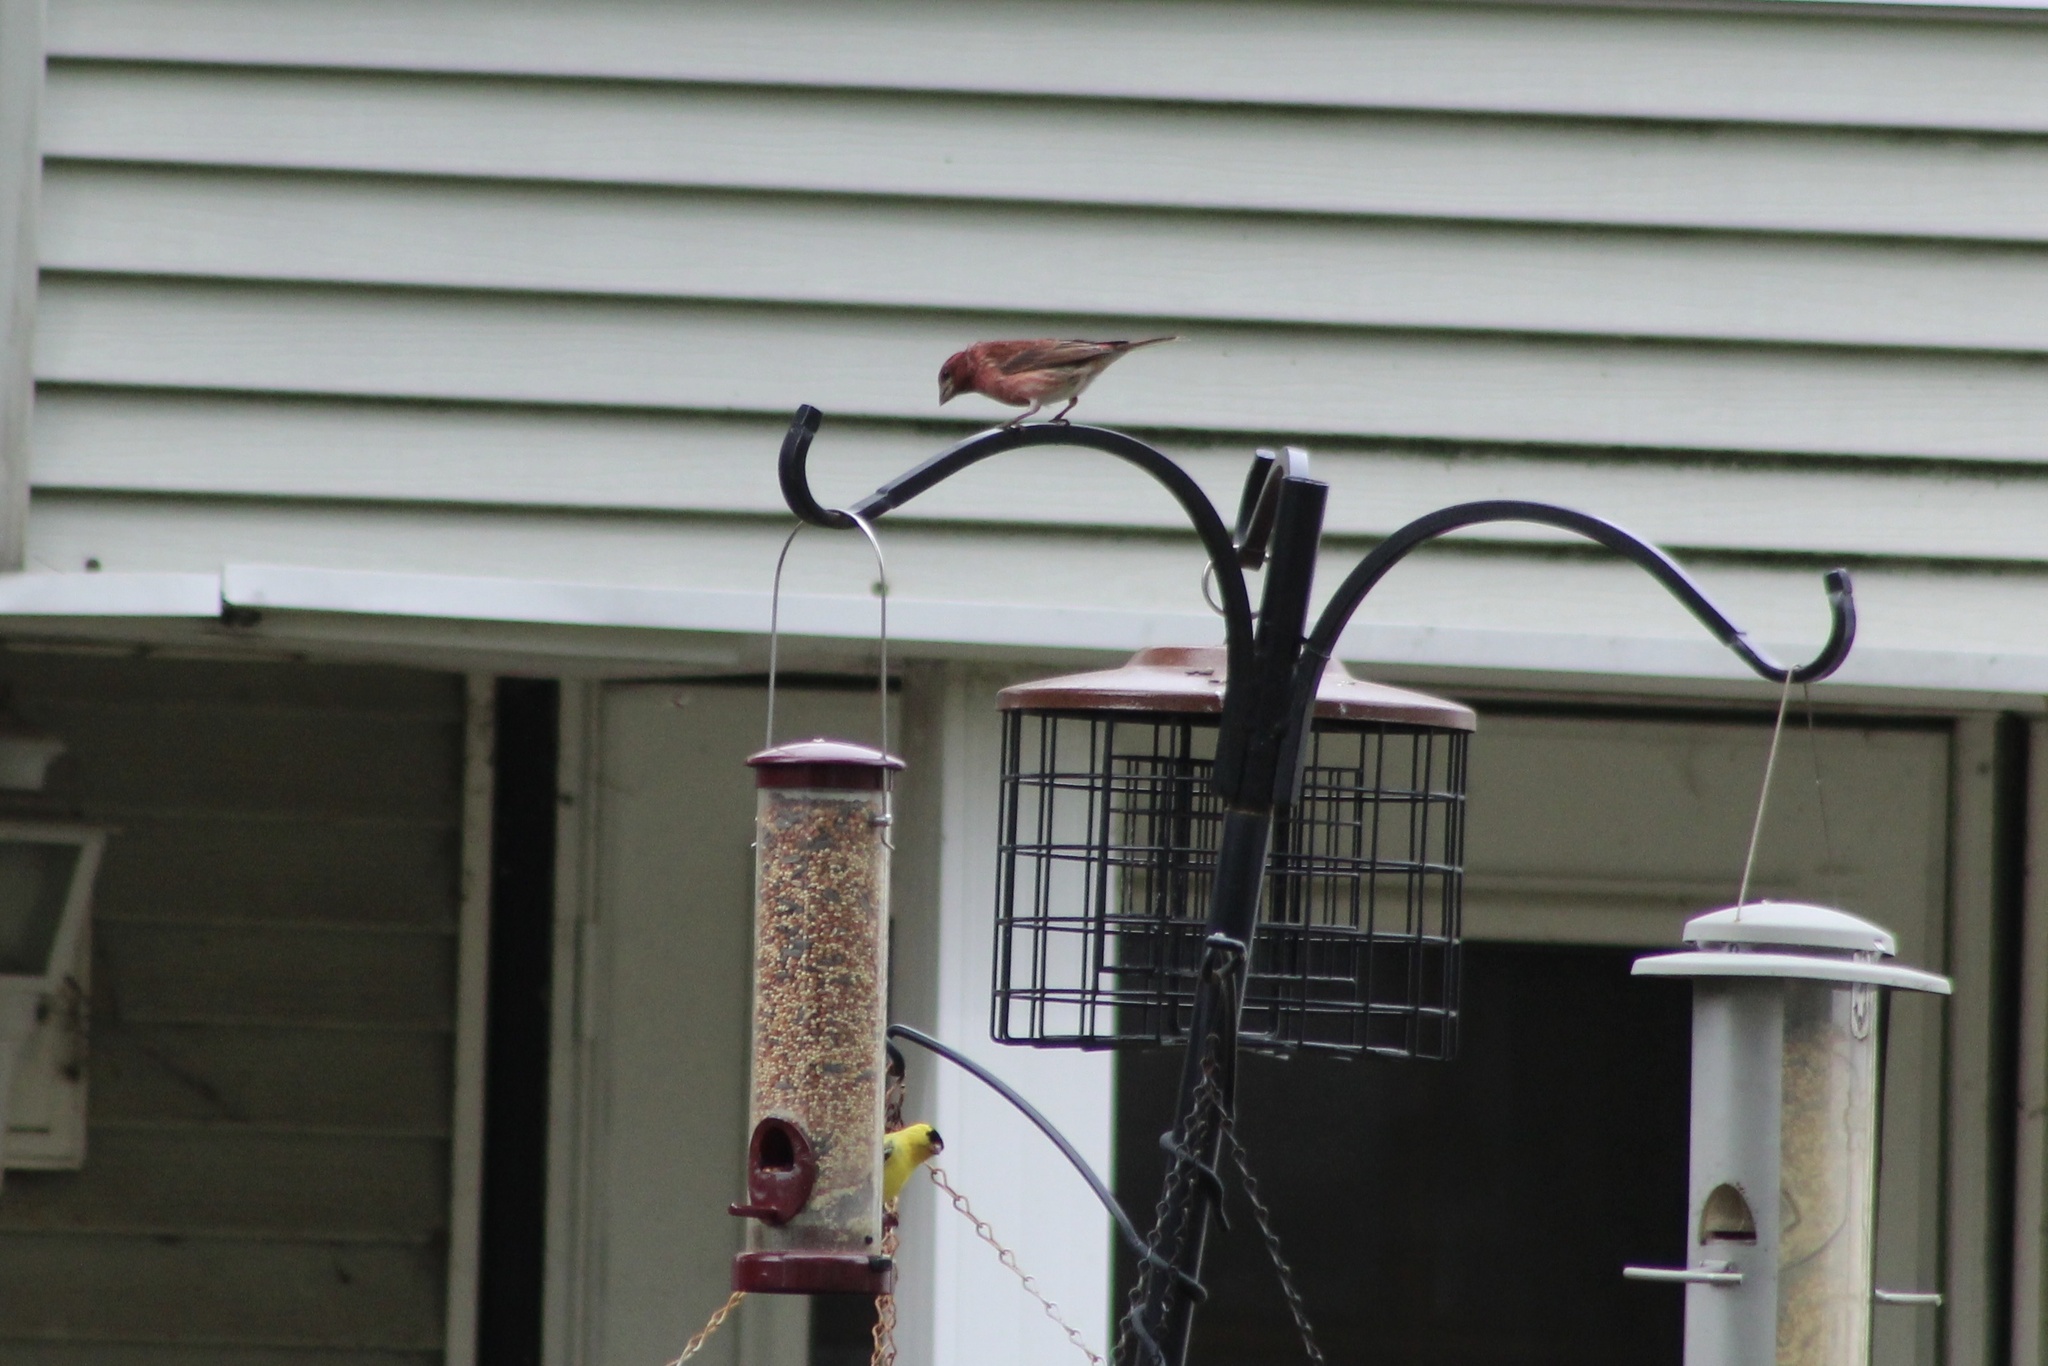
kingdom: Animalia
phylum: Chordata
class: Aves
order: Passeriformes
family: Fringillidae
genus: Haemorhous
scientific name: Haemorhous purpureus
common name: Purple finch
